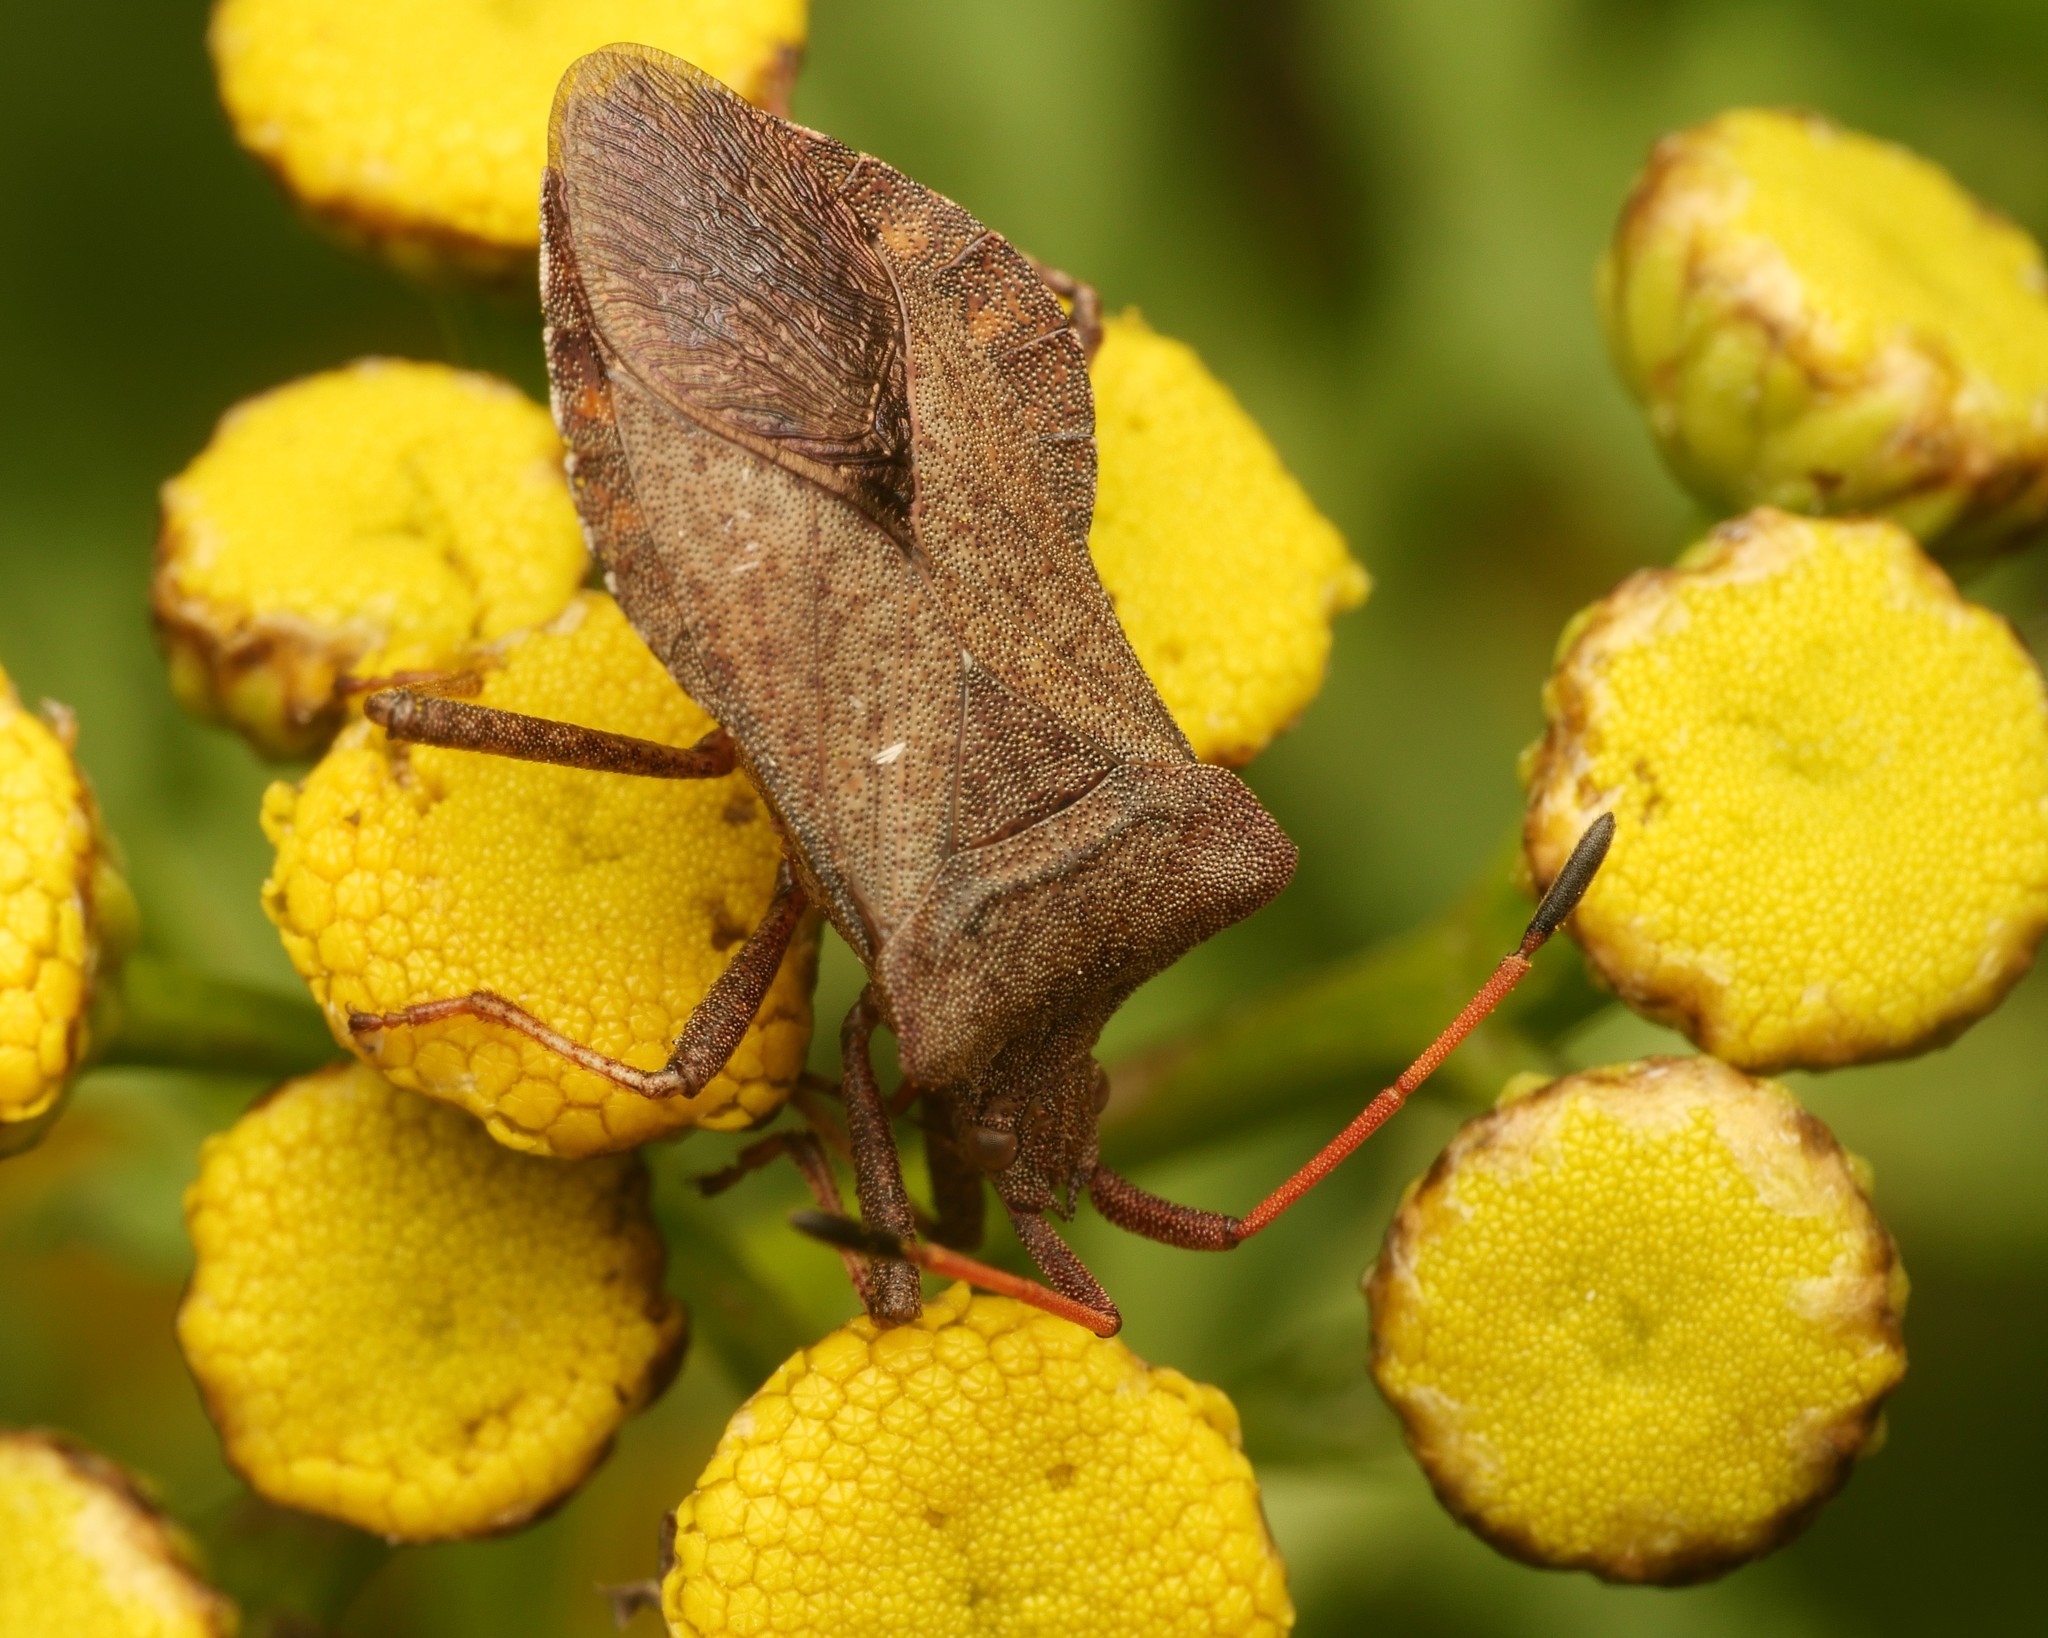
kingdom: Animalia
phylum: Arthropoda
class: Insecta
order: Hemiptera
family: Coreidae
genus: Coreus
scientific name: Coreus marginatus
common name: Dock bug
